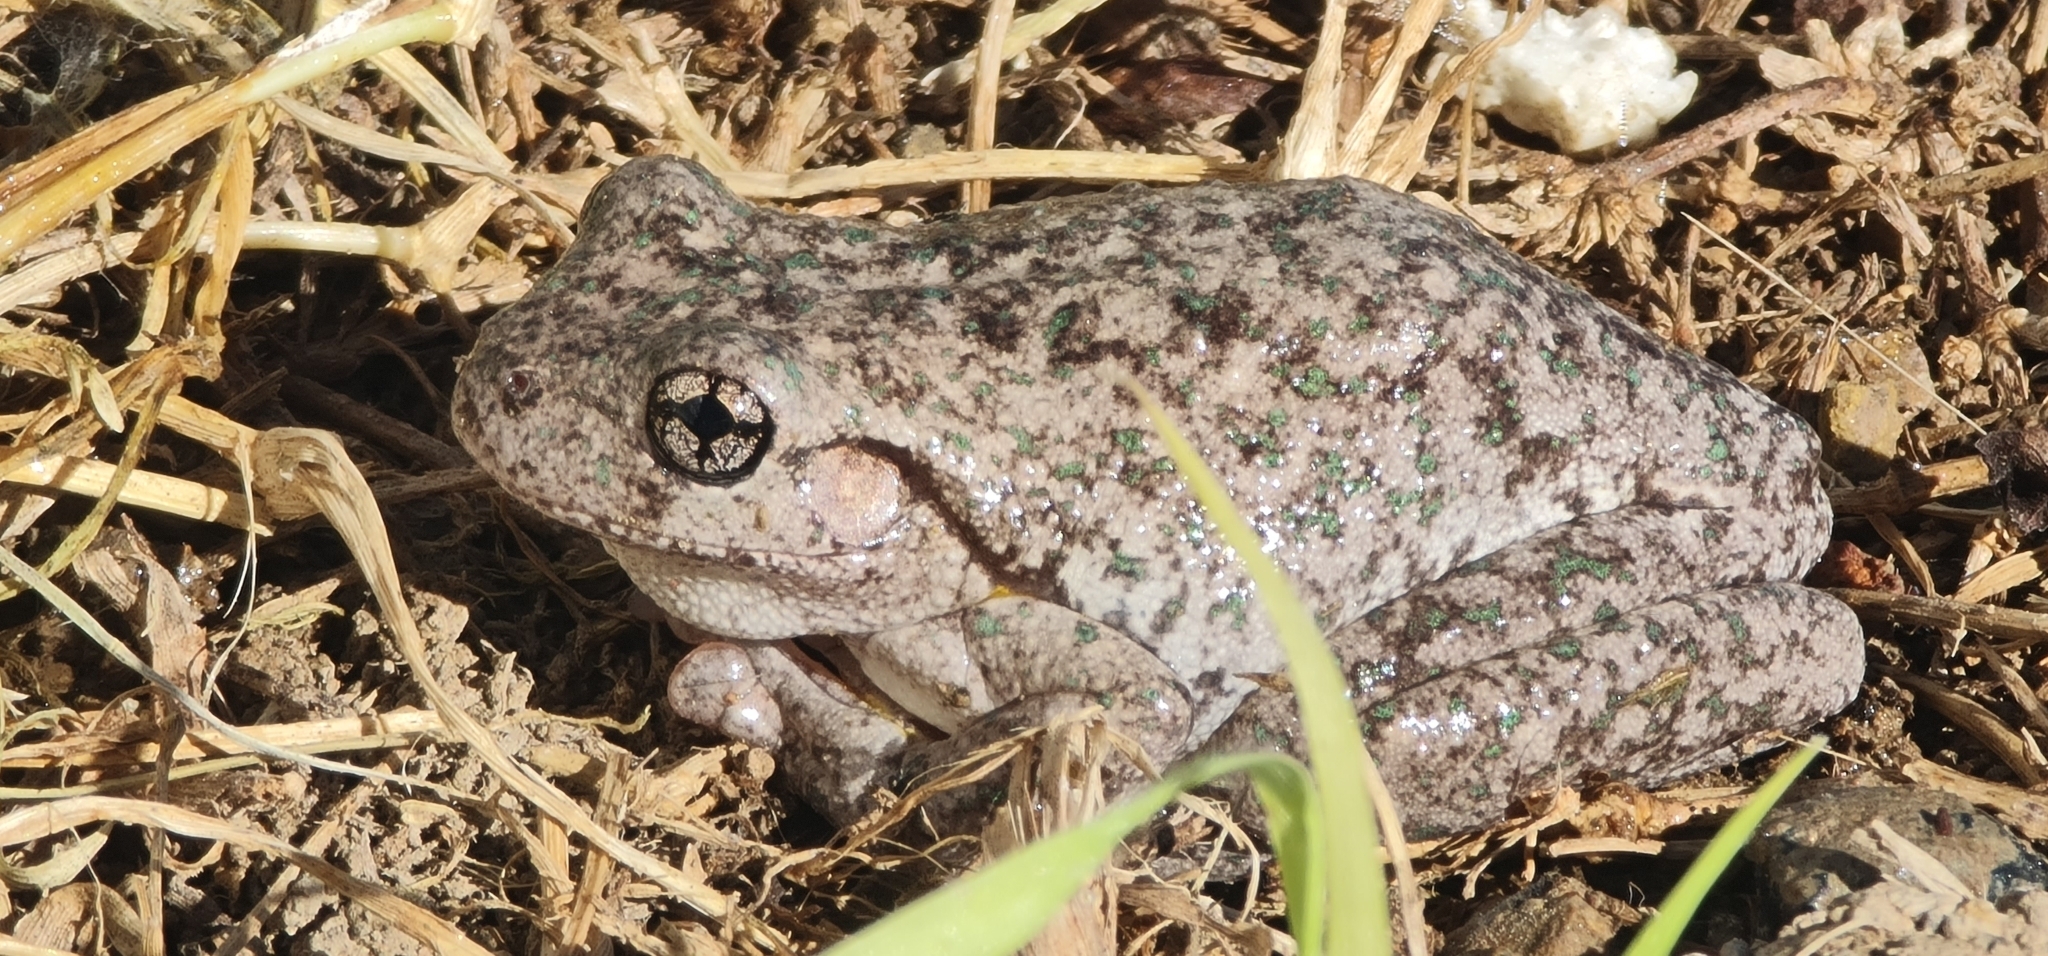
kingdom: Animalia
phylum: Chordata
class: Amphibia
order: Anura
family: Pelodryadidae
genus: Litoria
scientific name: Litoria peronii
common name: Emerald spotted treefrog
